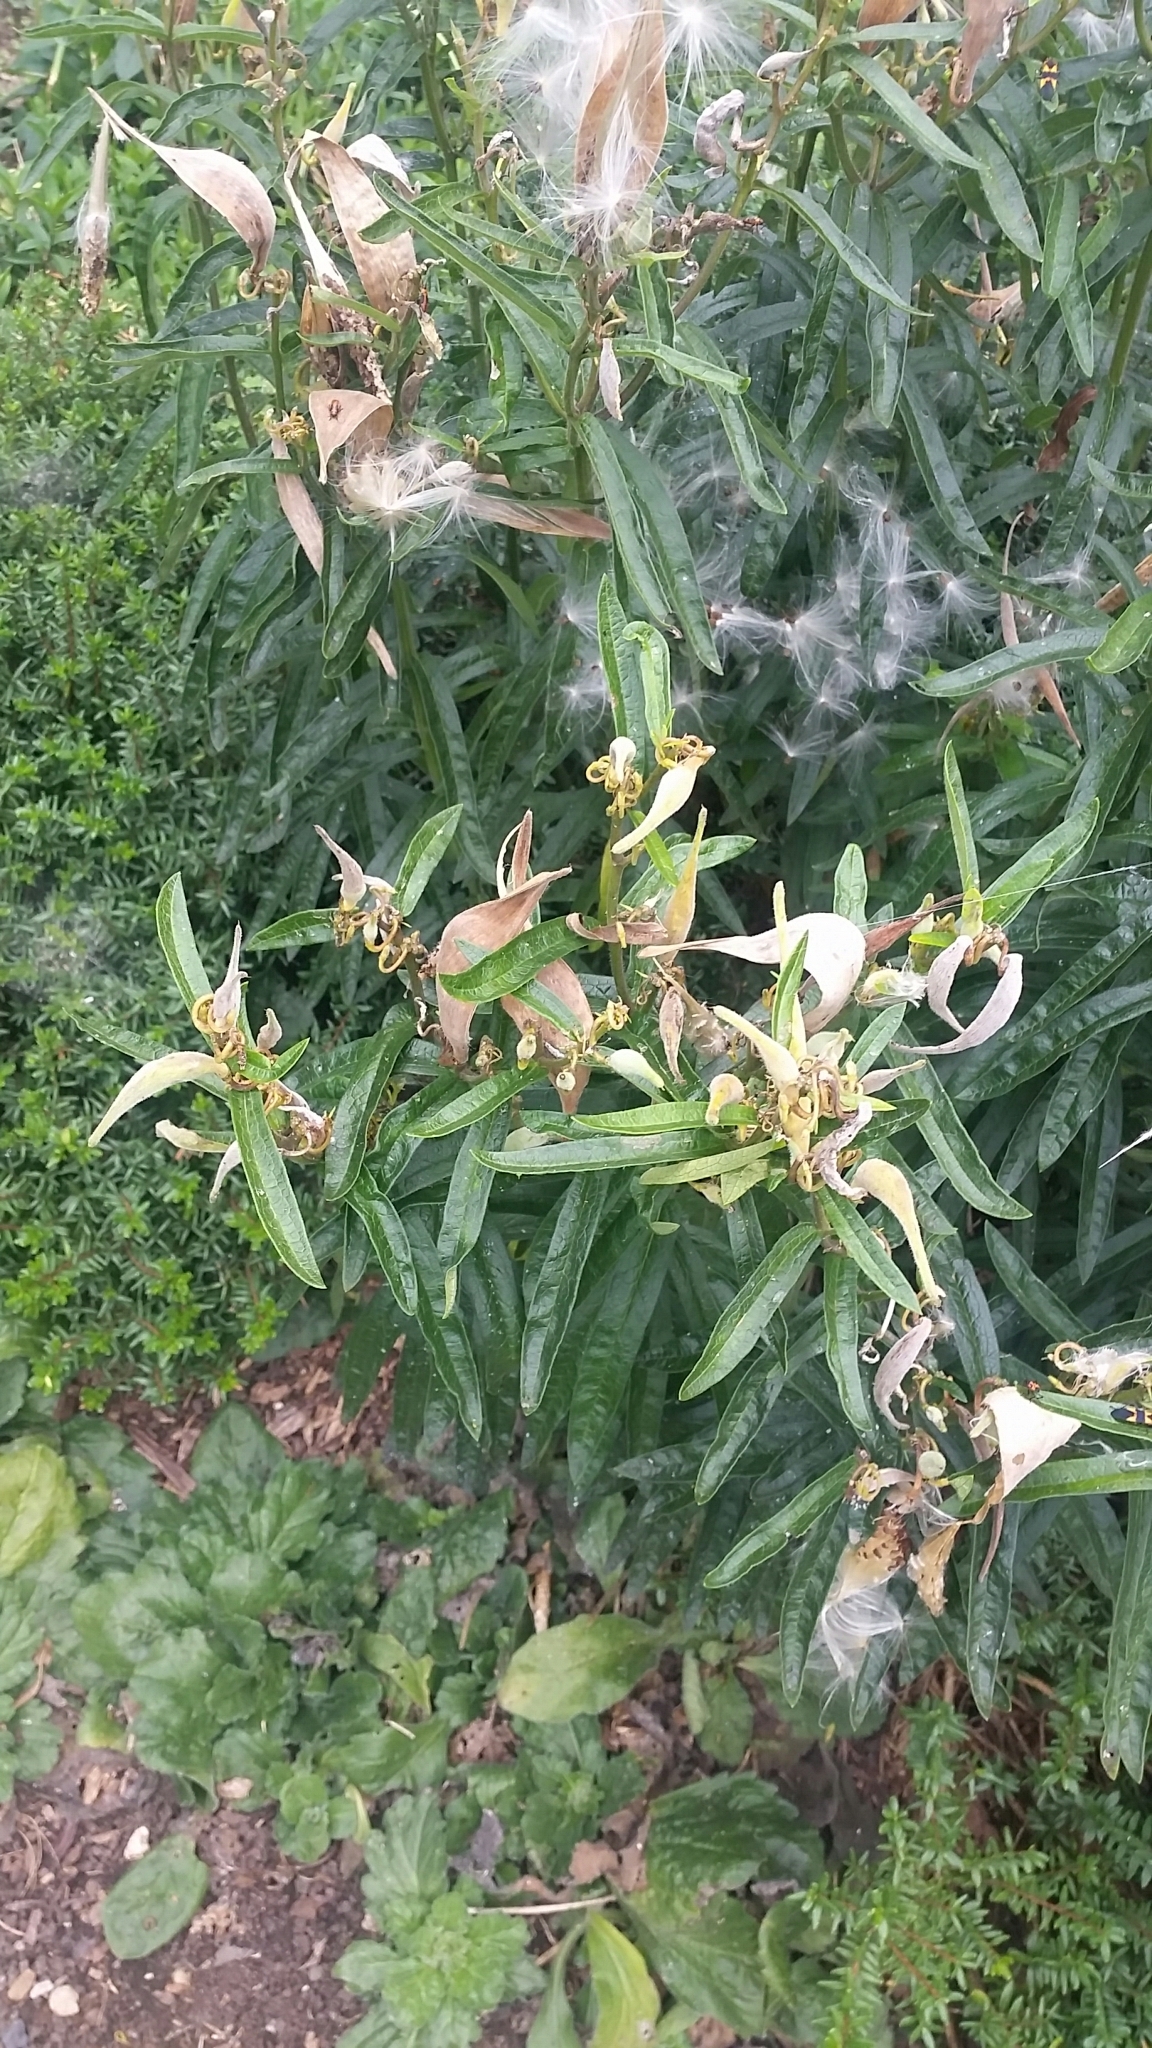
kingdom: Plantae
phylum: Tracheophyta
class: Magnoliopsida
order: Gentianales
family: Apocynaceae
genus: Asclepias
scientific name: Asclepias tuberosa
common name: Butterfly milkweed
